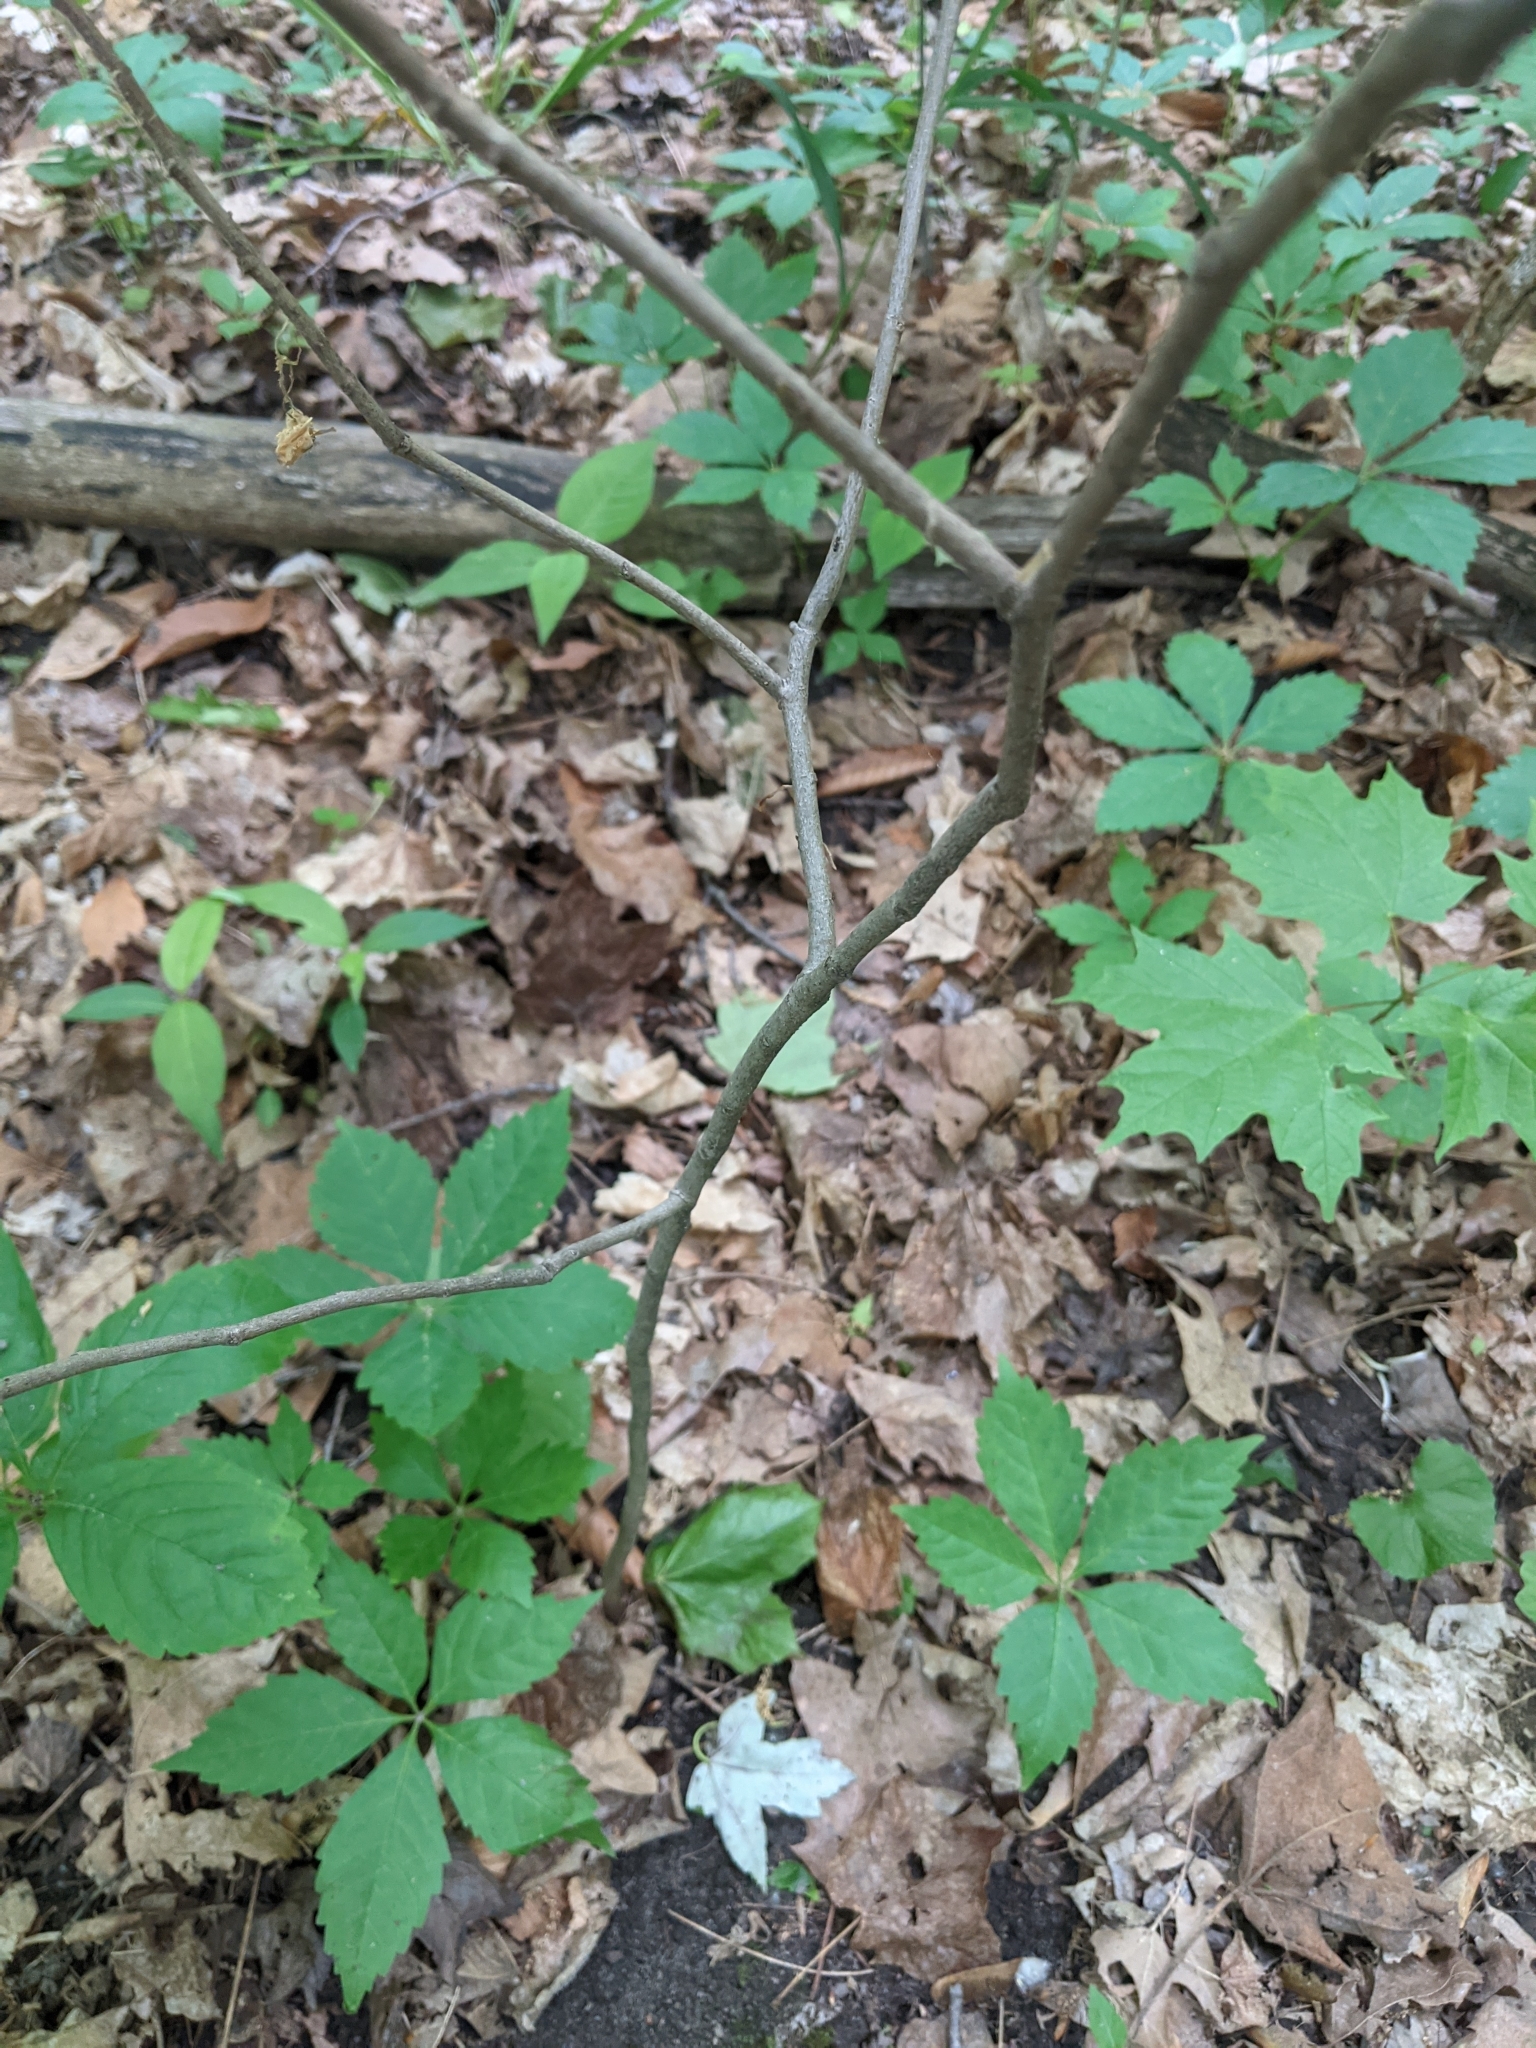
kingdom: Plantae
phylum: Tracheophyta
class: Magnoliopsida
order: Magnoliales
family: Annonaceae
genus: Asimina
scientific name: Asimina triloba
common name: Dog-banana
